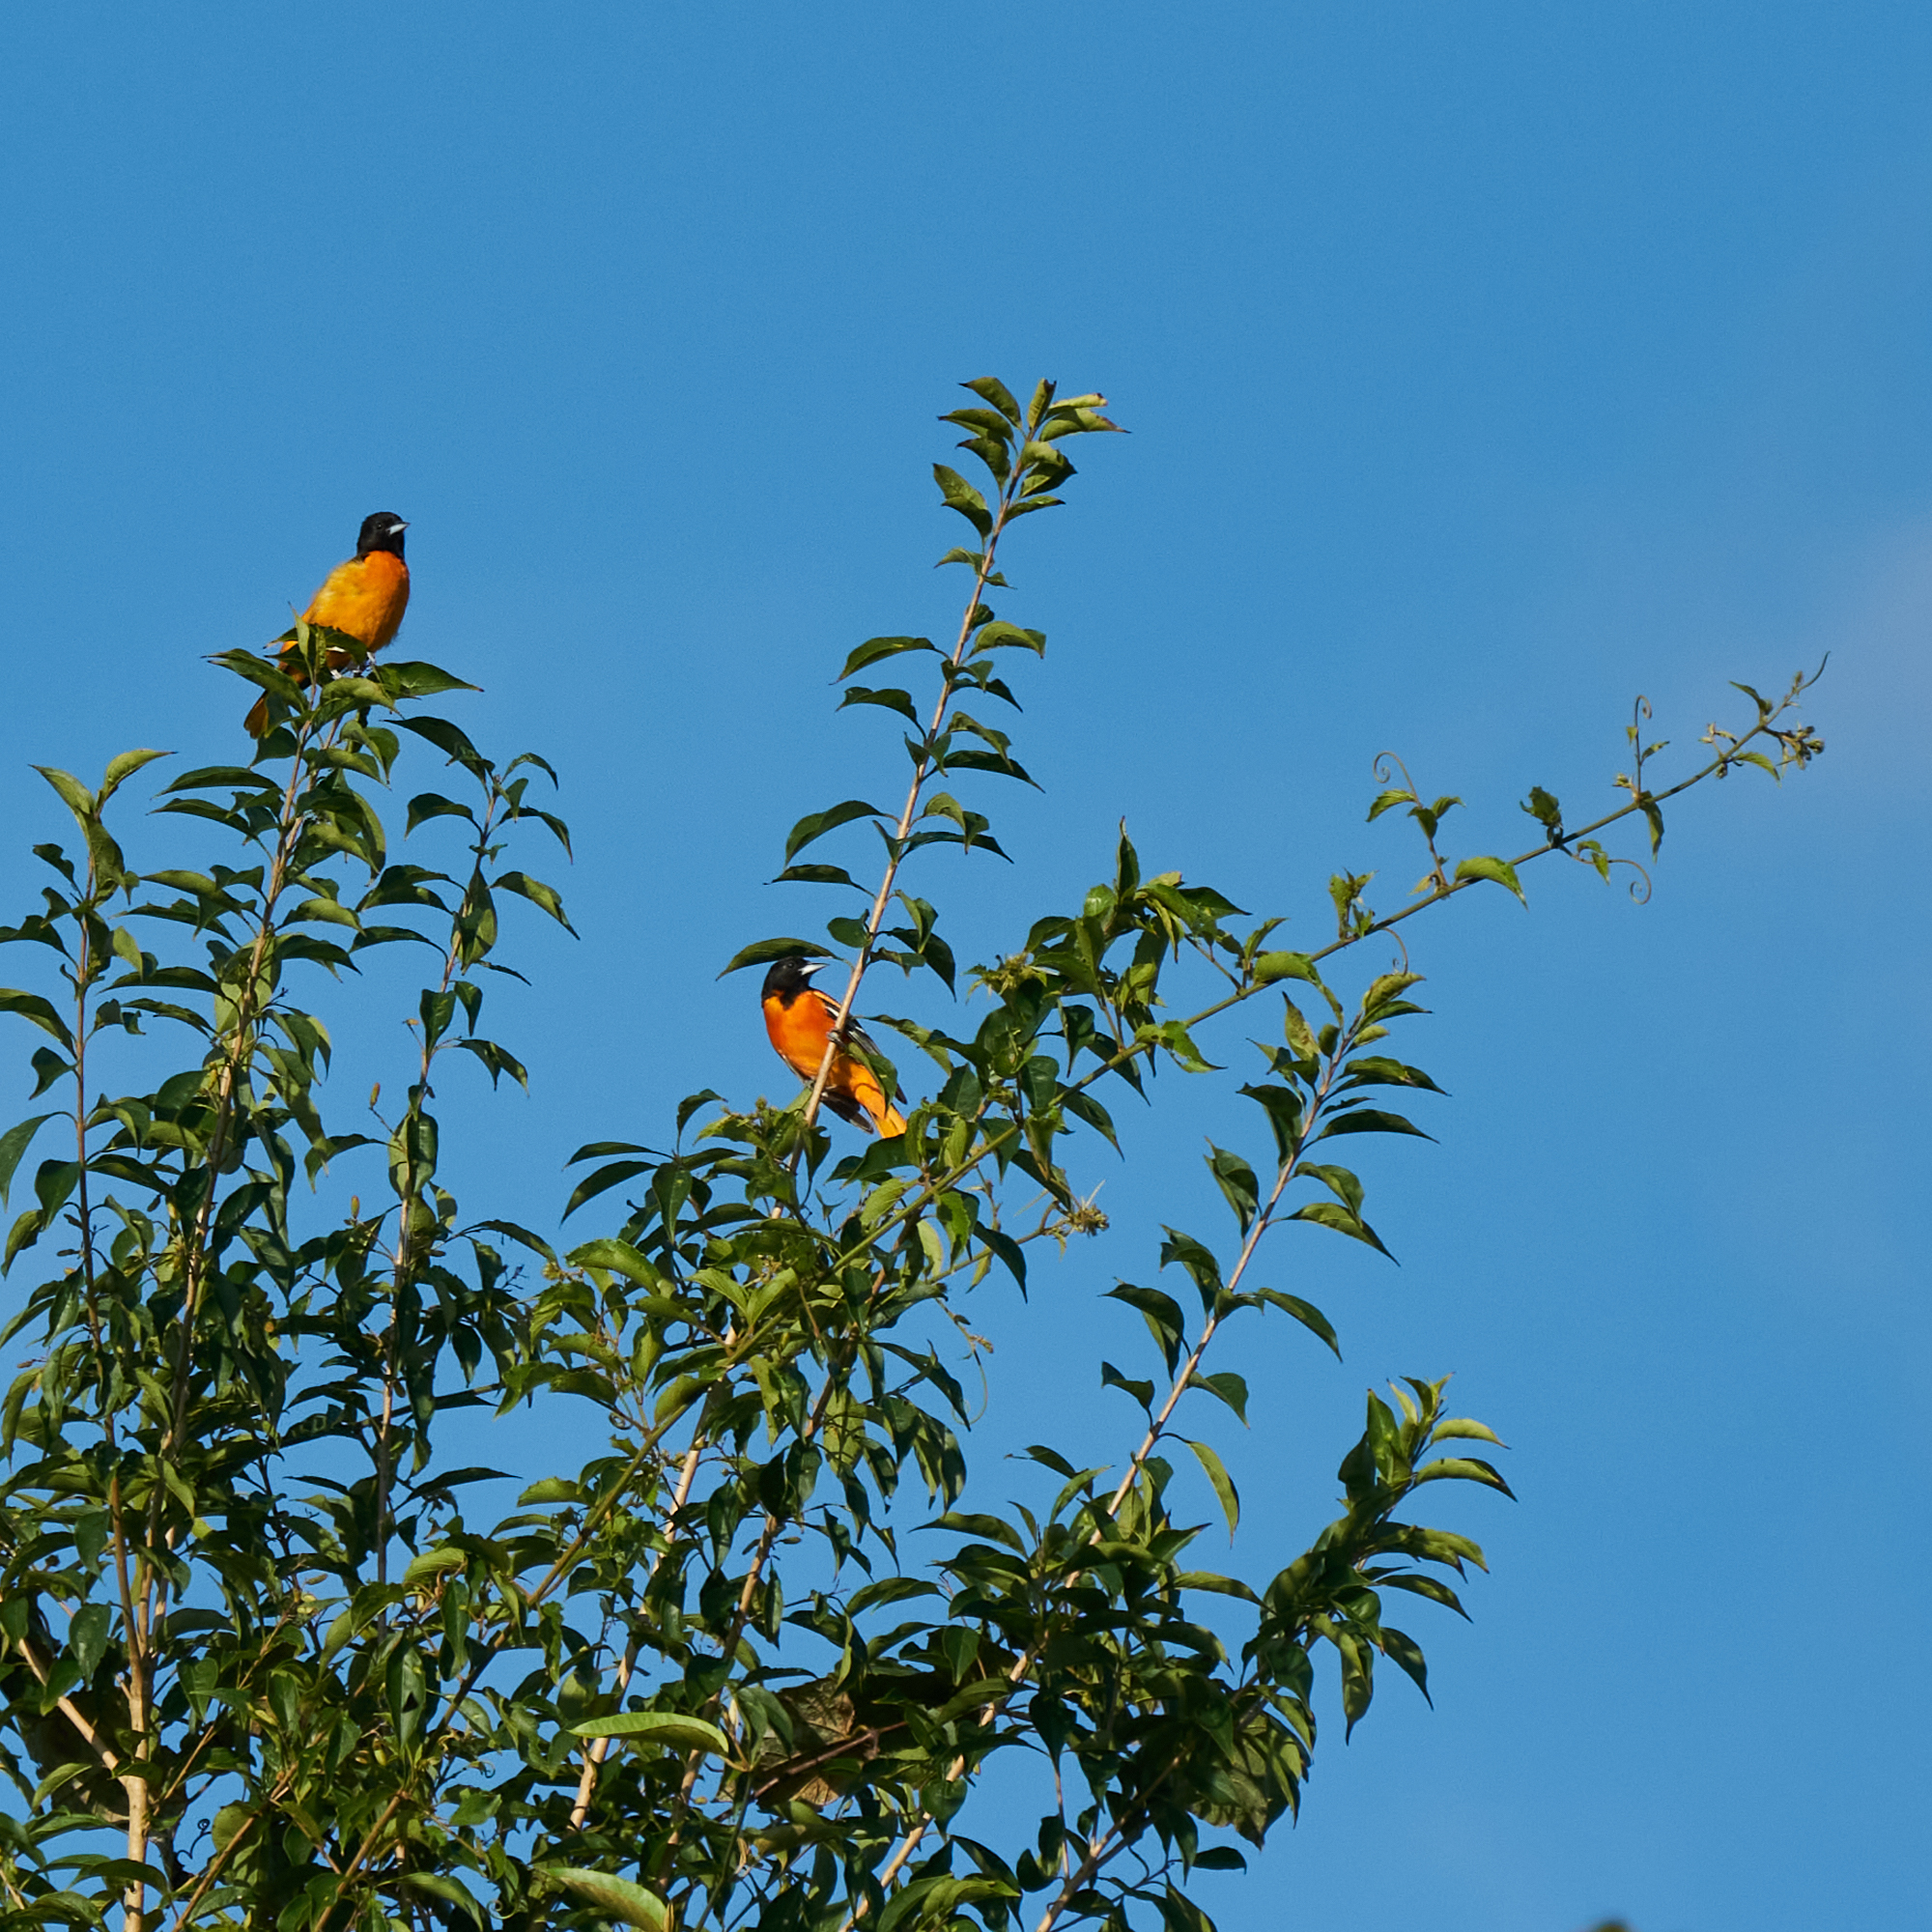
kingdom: Animalia
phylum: Chordata
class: Aves
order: Passeriformes
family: Icteridae
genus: Icterus
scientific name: Icterus galbula
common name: Baltimore oriole
